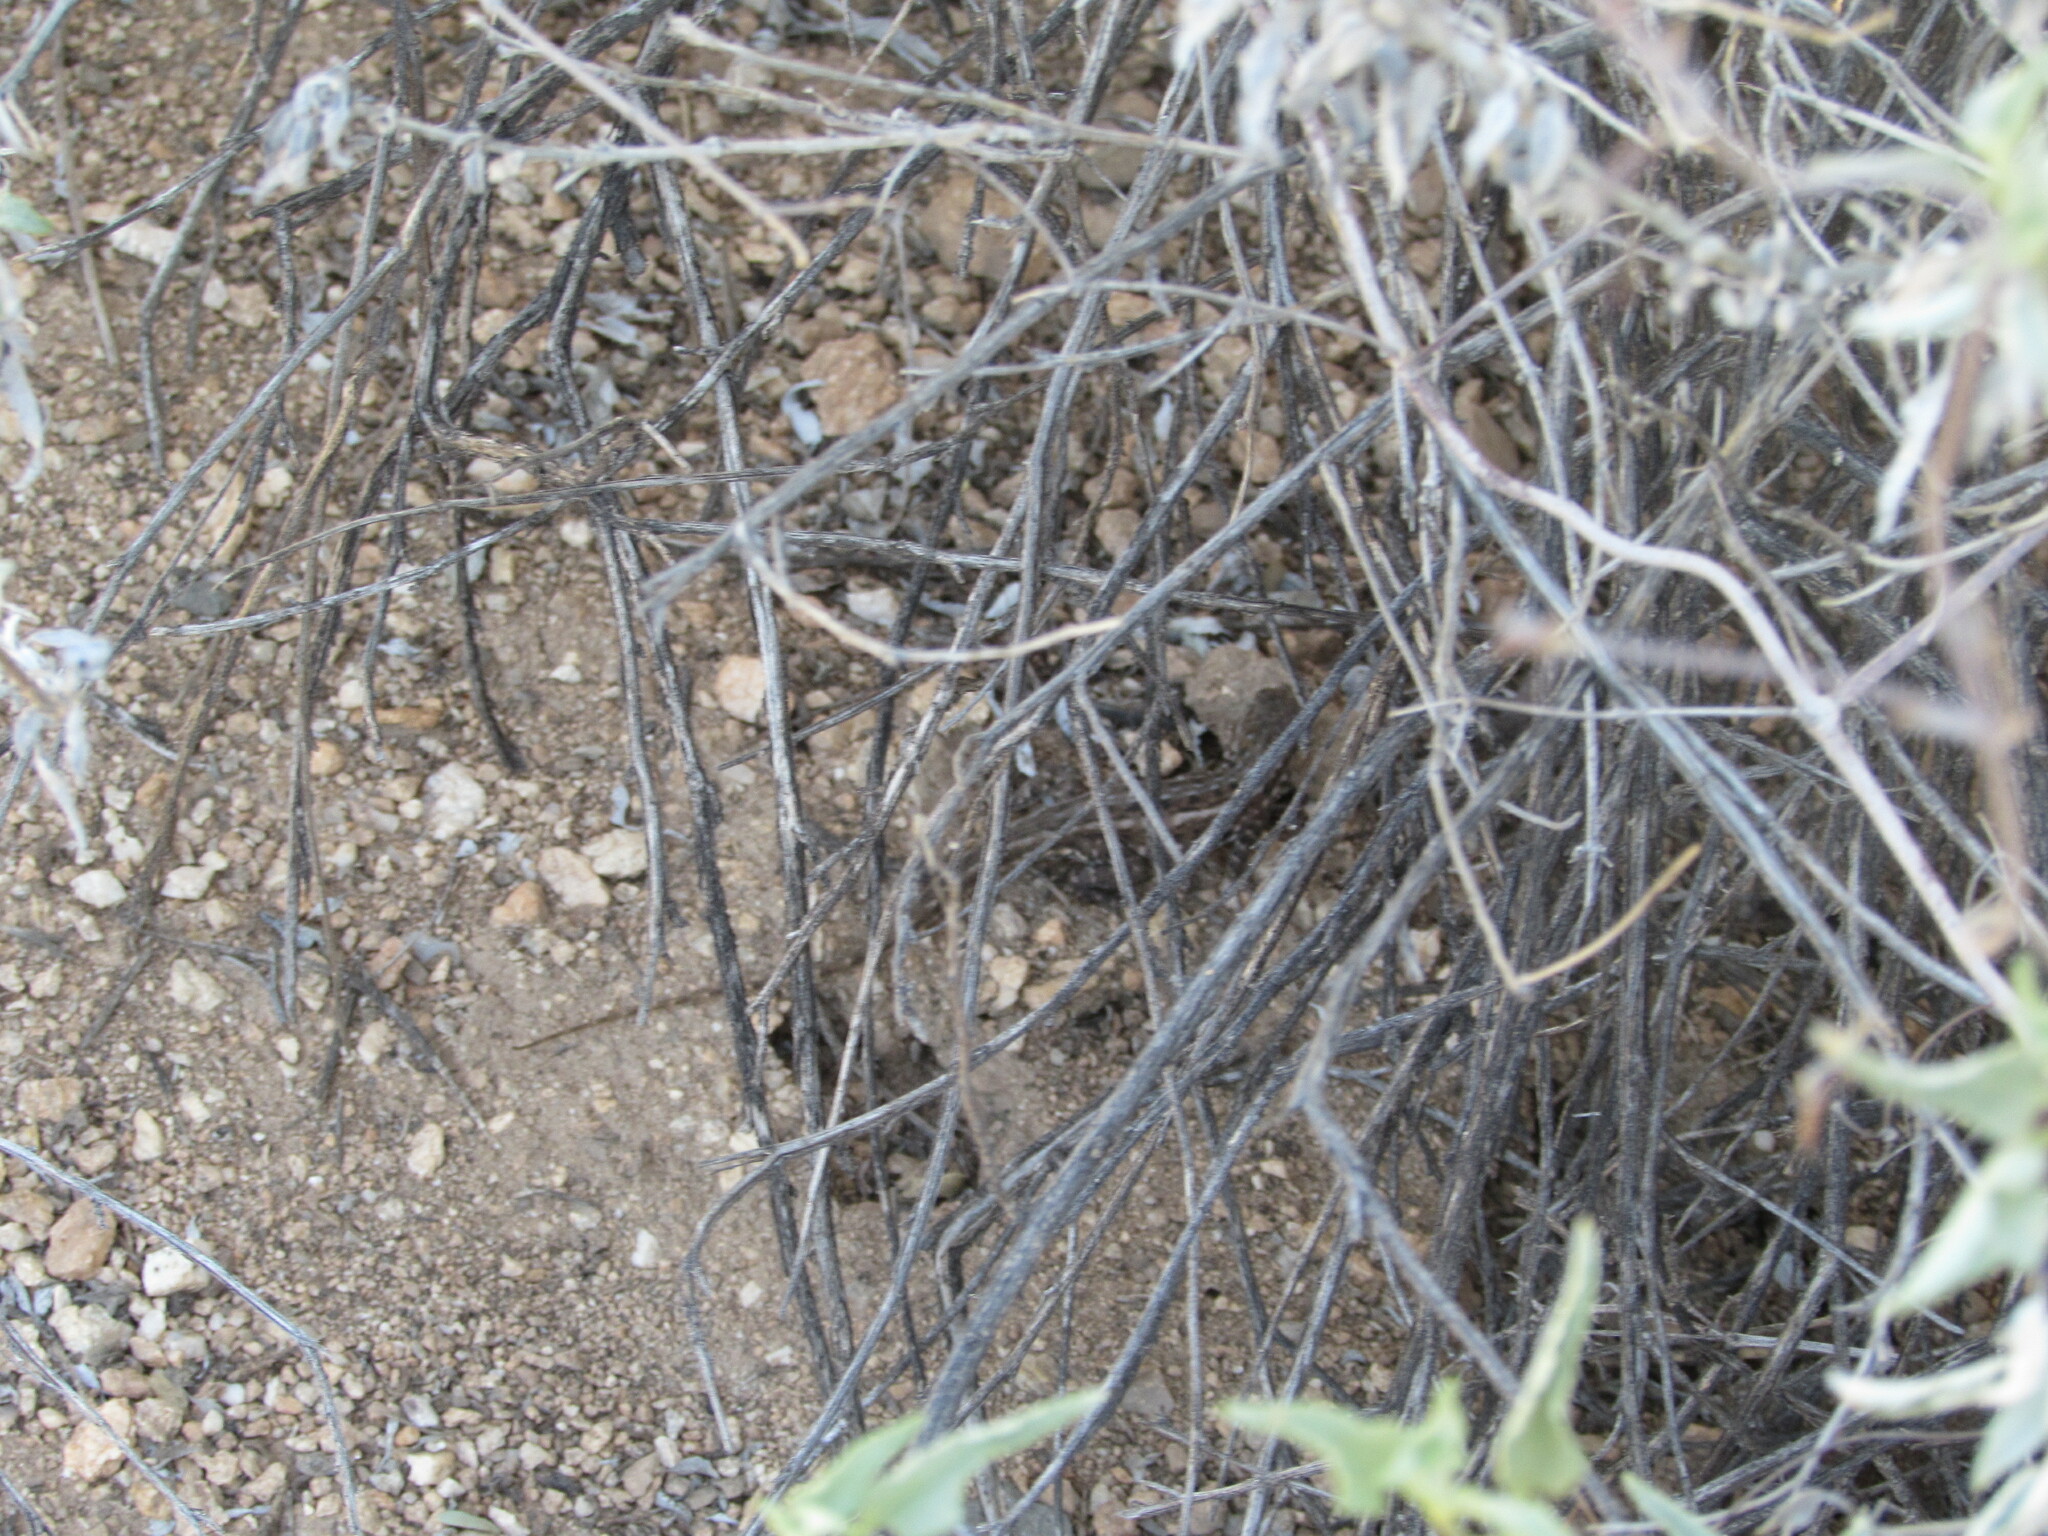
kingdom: Animalia
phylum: Chordata
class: Squamata
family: Phrynosomatidae
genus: Uta
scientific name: Uta stansburiana
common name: Side-blotched lizard
